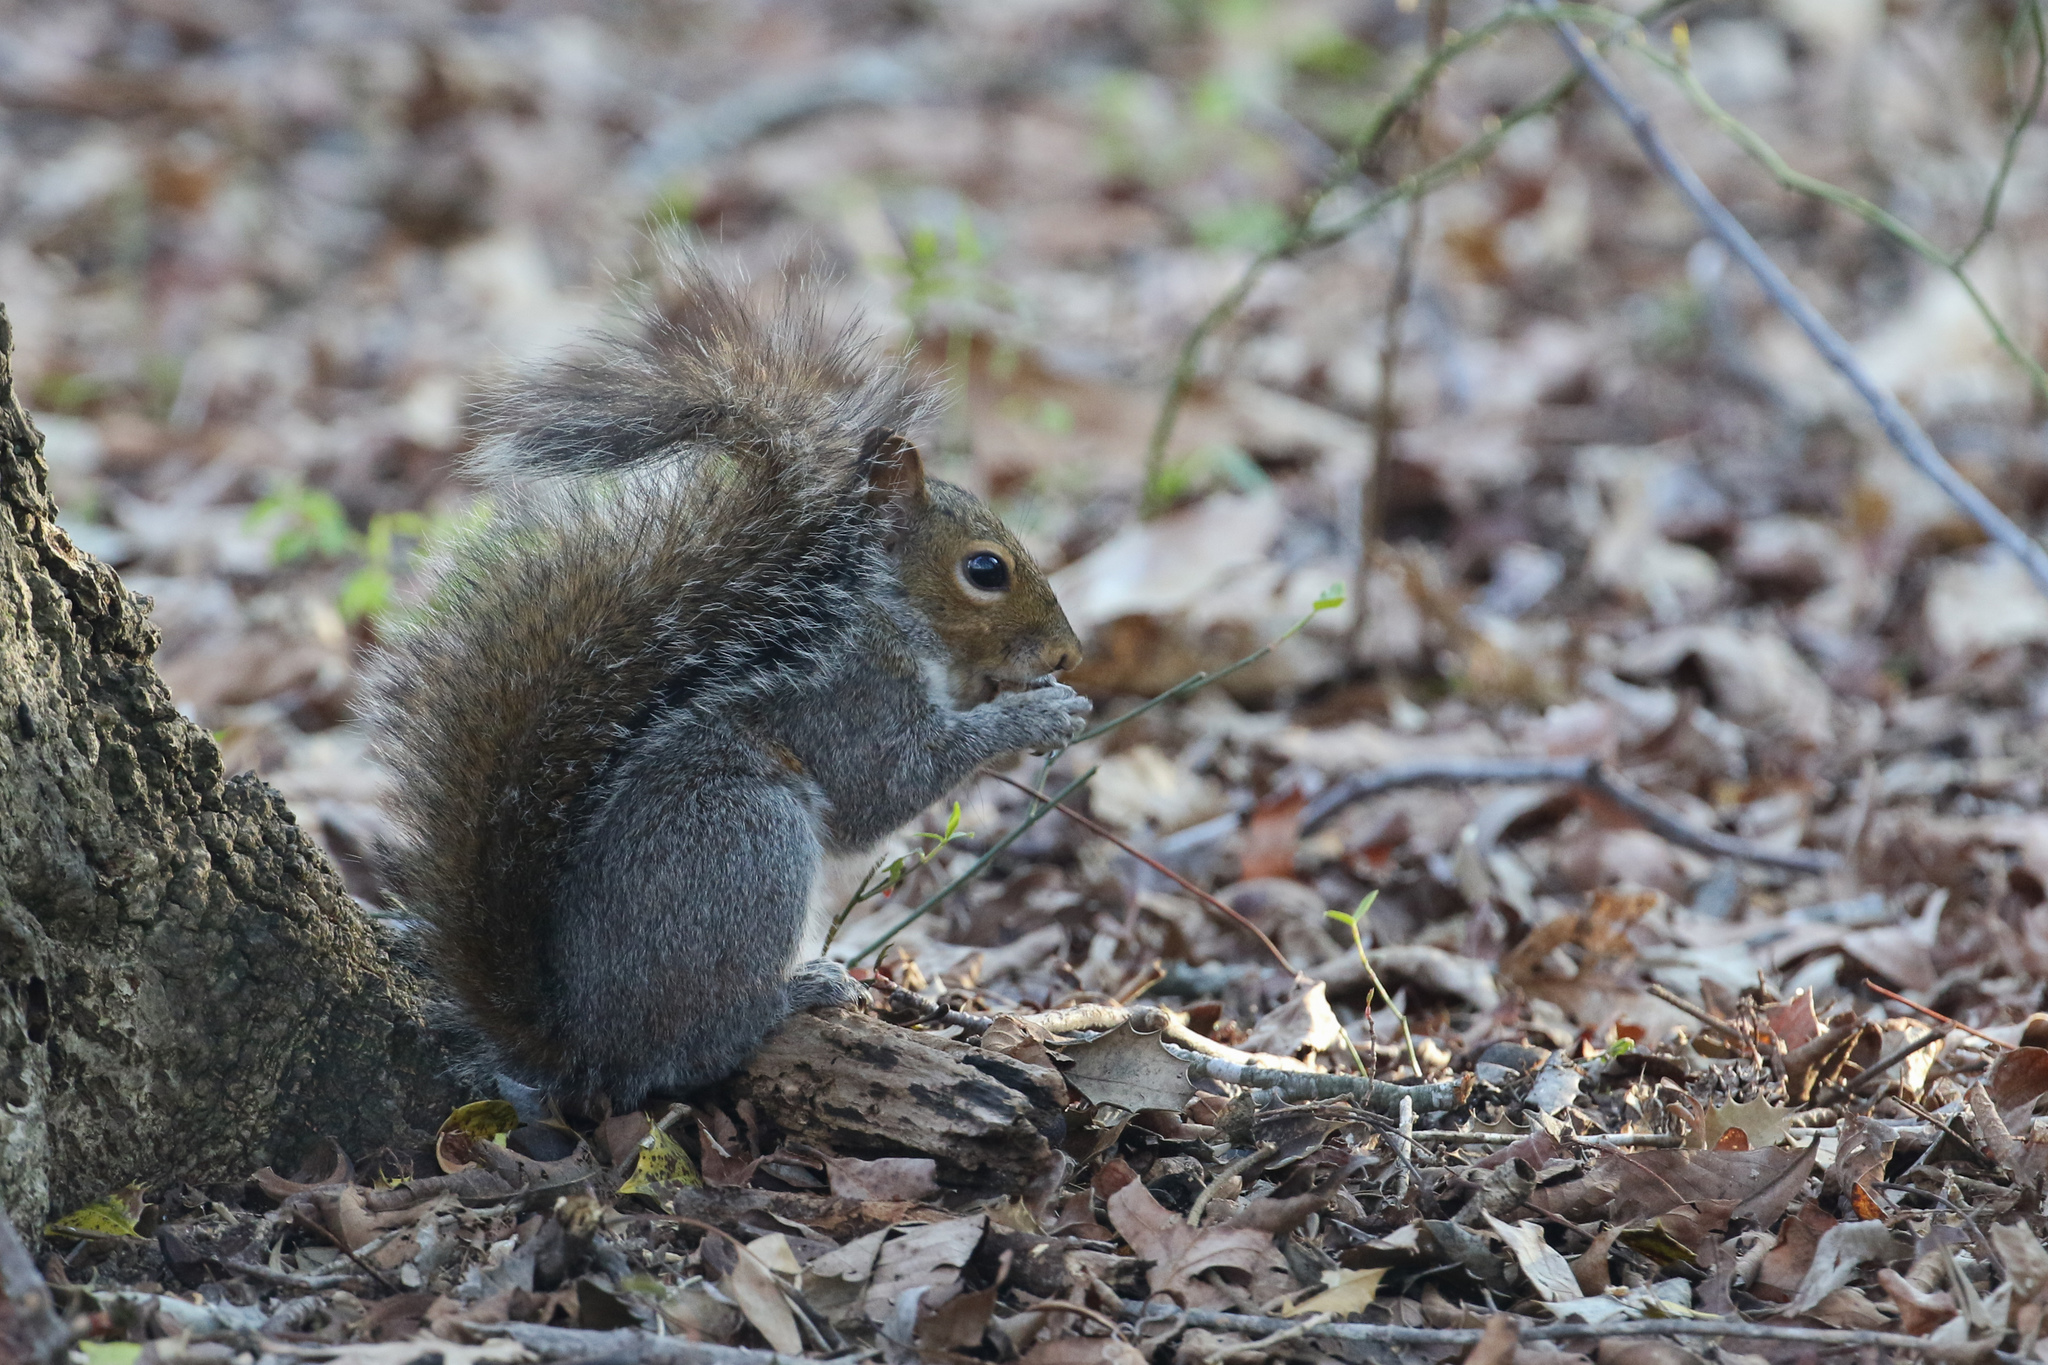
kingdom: Animalia
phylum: Chordata
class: Mammalia
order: Rodentia
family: Sciuridae
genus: Sciurus
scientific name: Sciurus carolinensis
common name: Eastern gray squirrel
